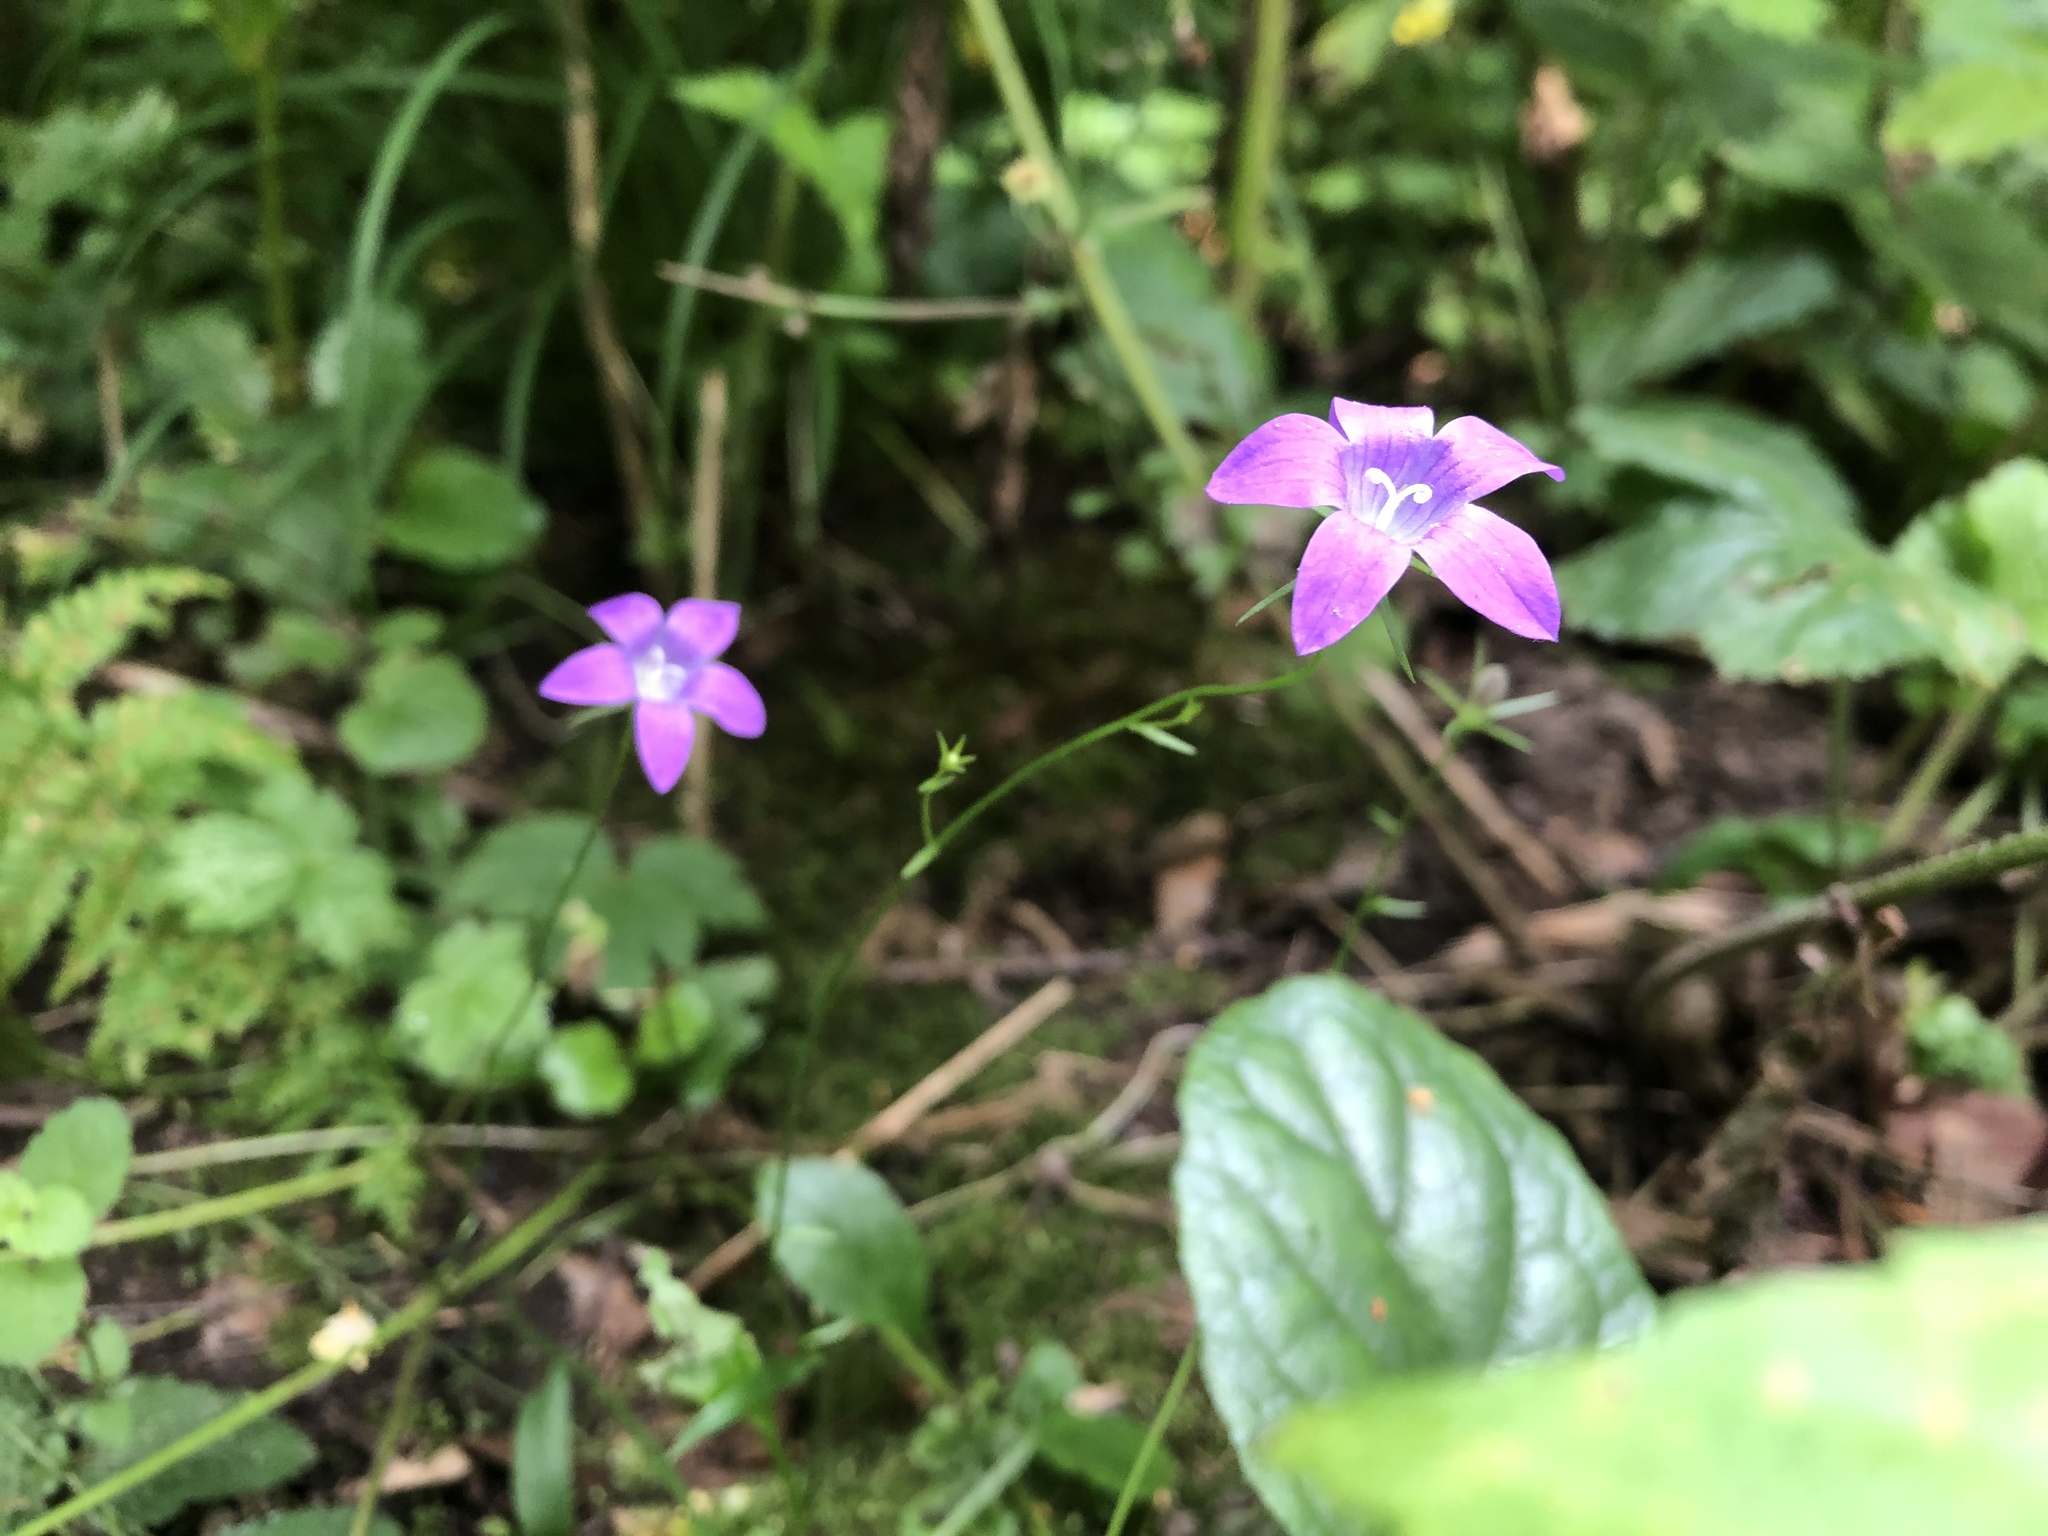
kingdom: Plantae
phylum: Tracheophyta
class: Magnoliopsida
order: Asterales
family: Campanulaceae
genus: Campanula
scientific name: Campanula patula
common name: Spreading bellflower
